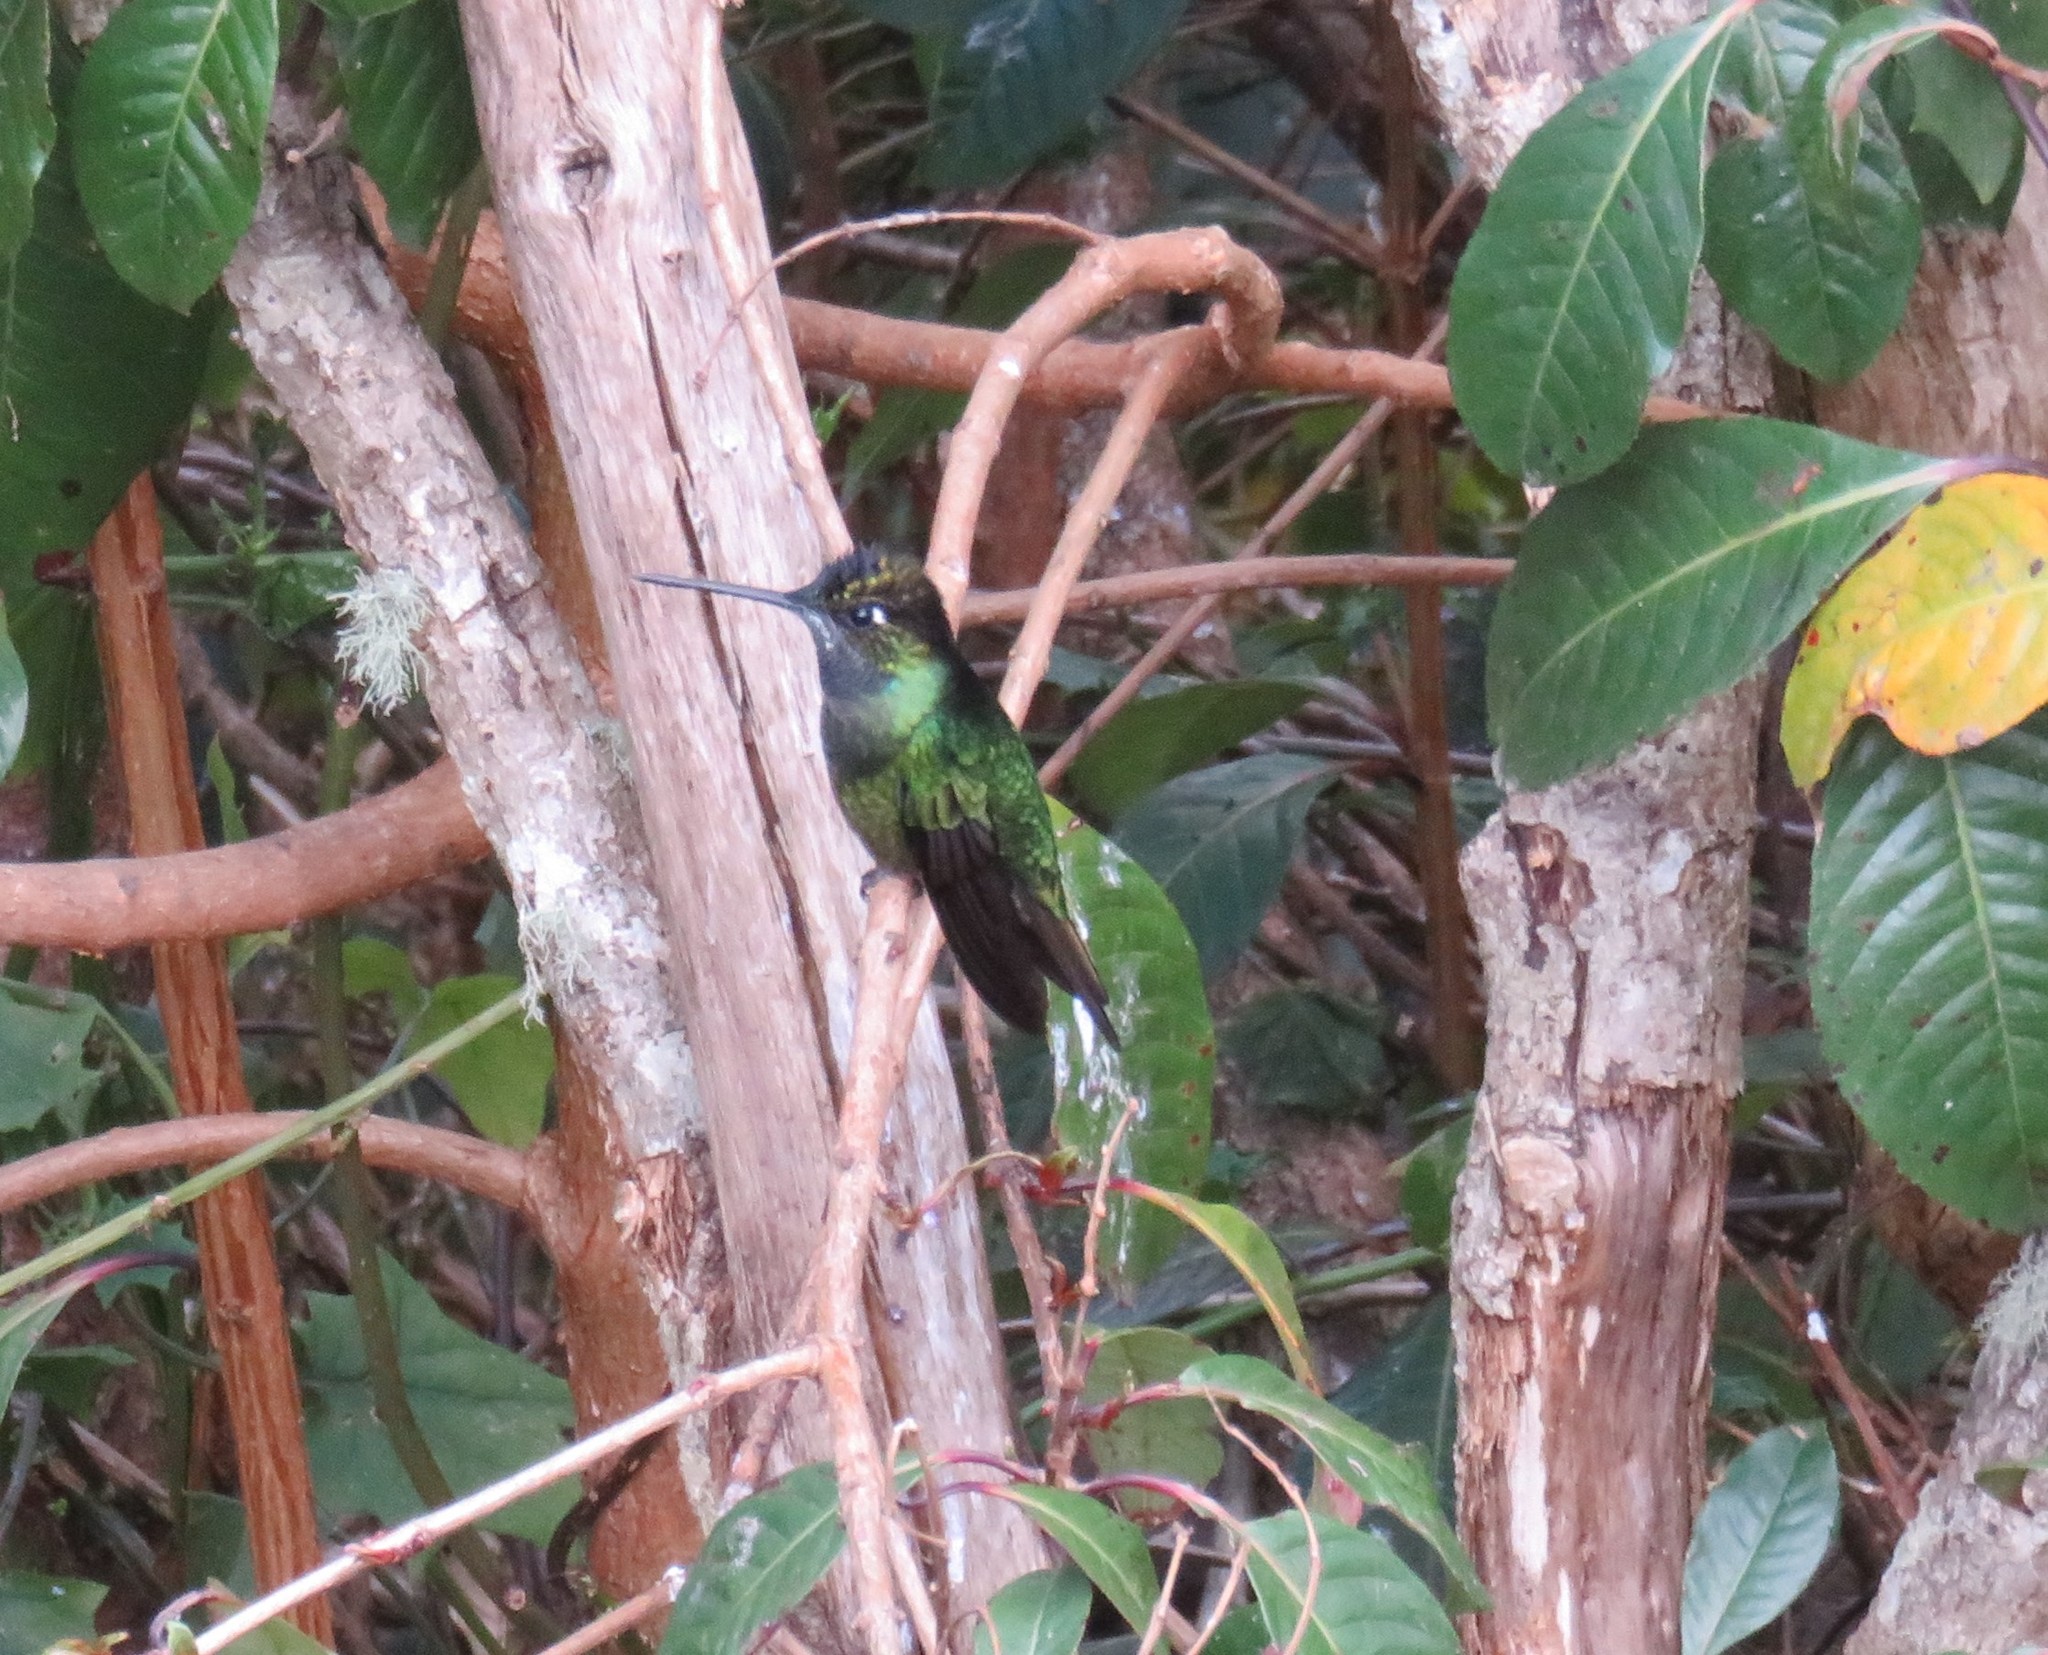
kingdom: Animalia
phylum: Chordata
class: Aves
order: Apodiformes
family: Trochilidae
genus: Eugenes
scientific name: Eugenes spectabilis
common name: Talamanca hummingbird
